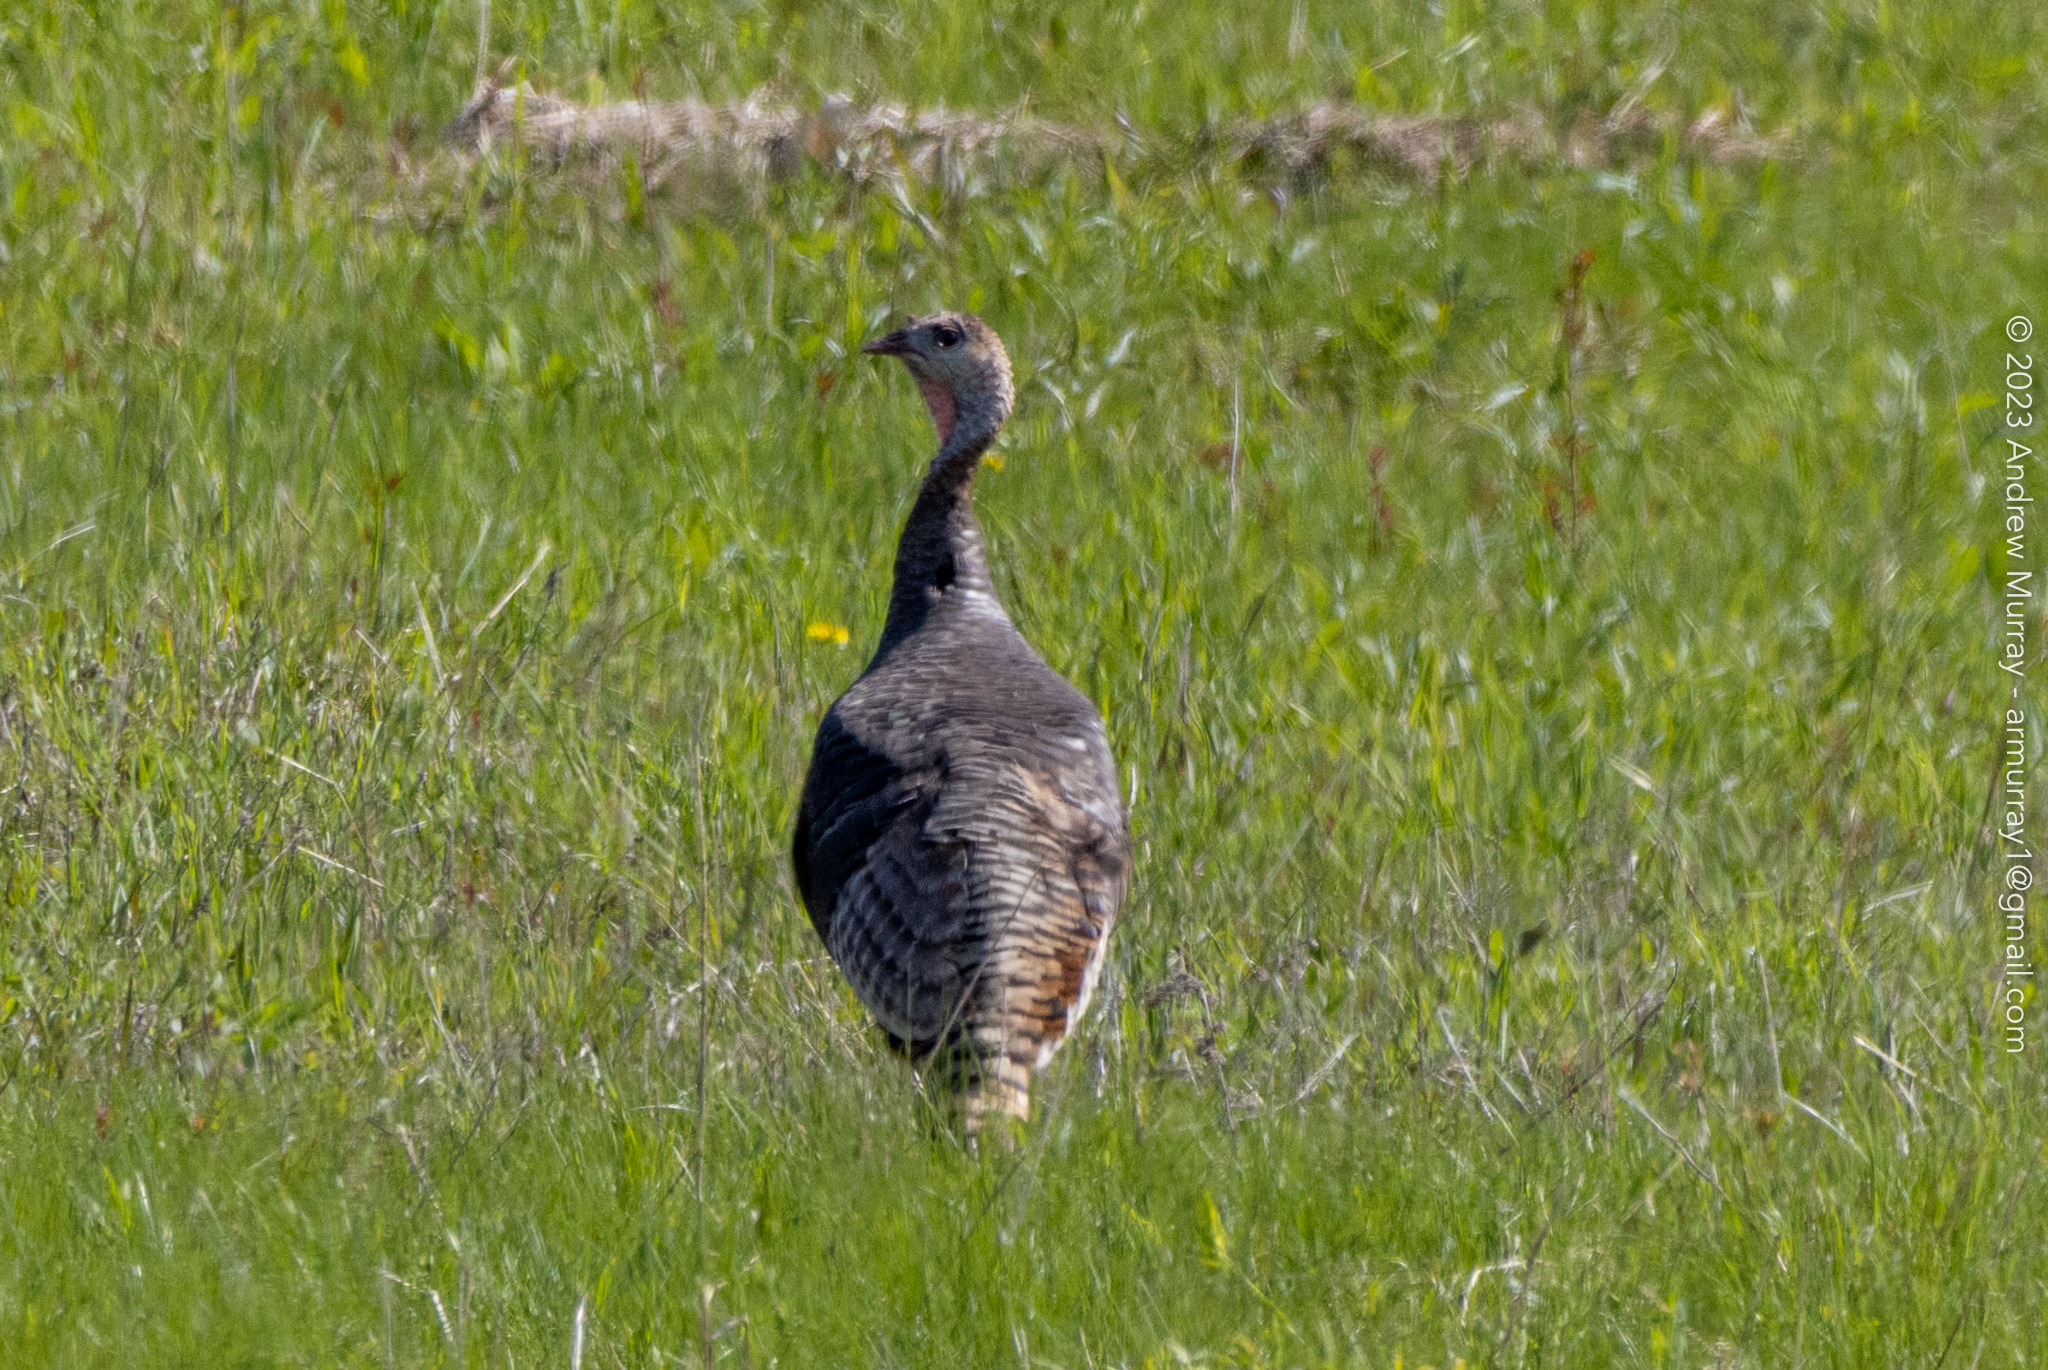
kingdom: Animalia
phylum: Chordata
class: Aves
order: Galliformes
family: Phasianidae
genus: Meleagris
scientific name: Meleagris gallopavo
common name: Wild turkey
